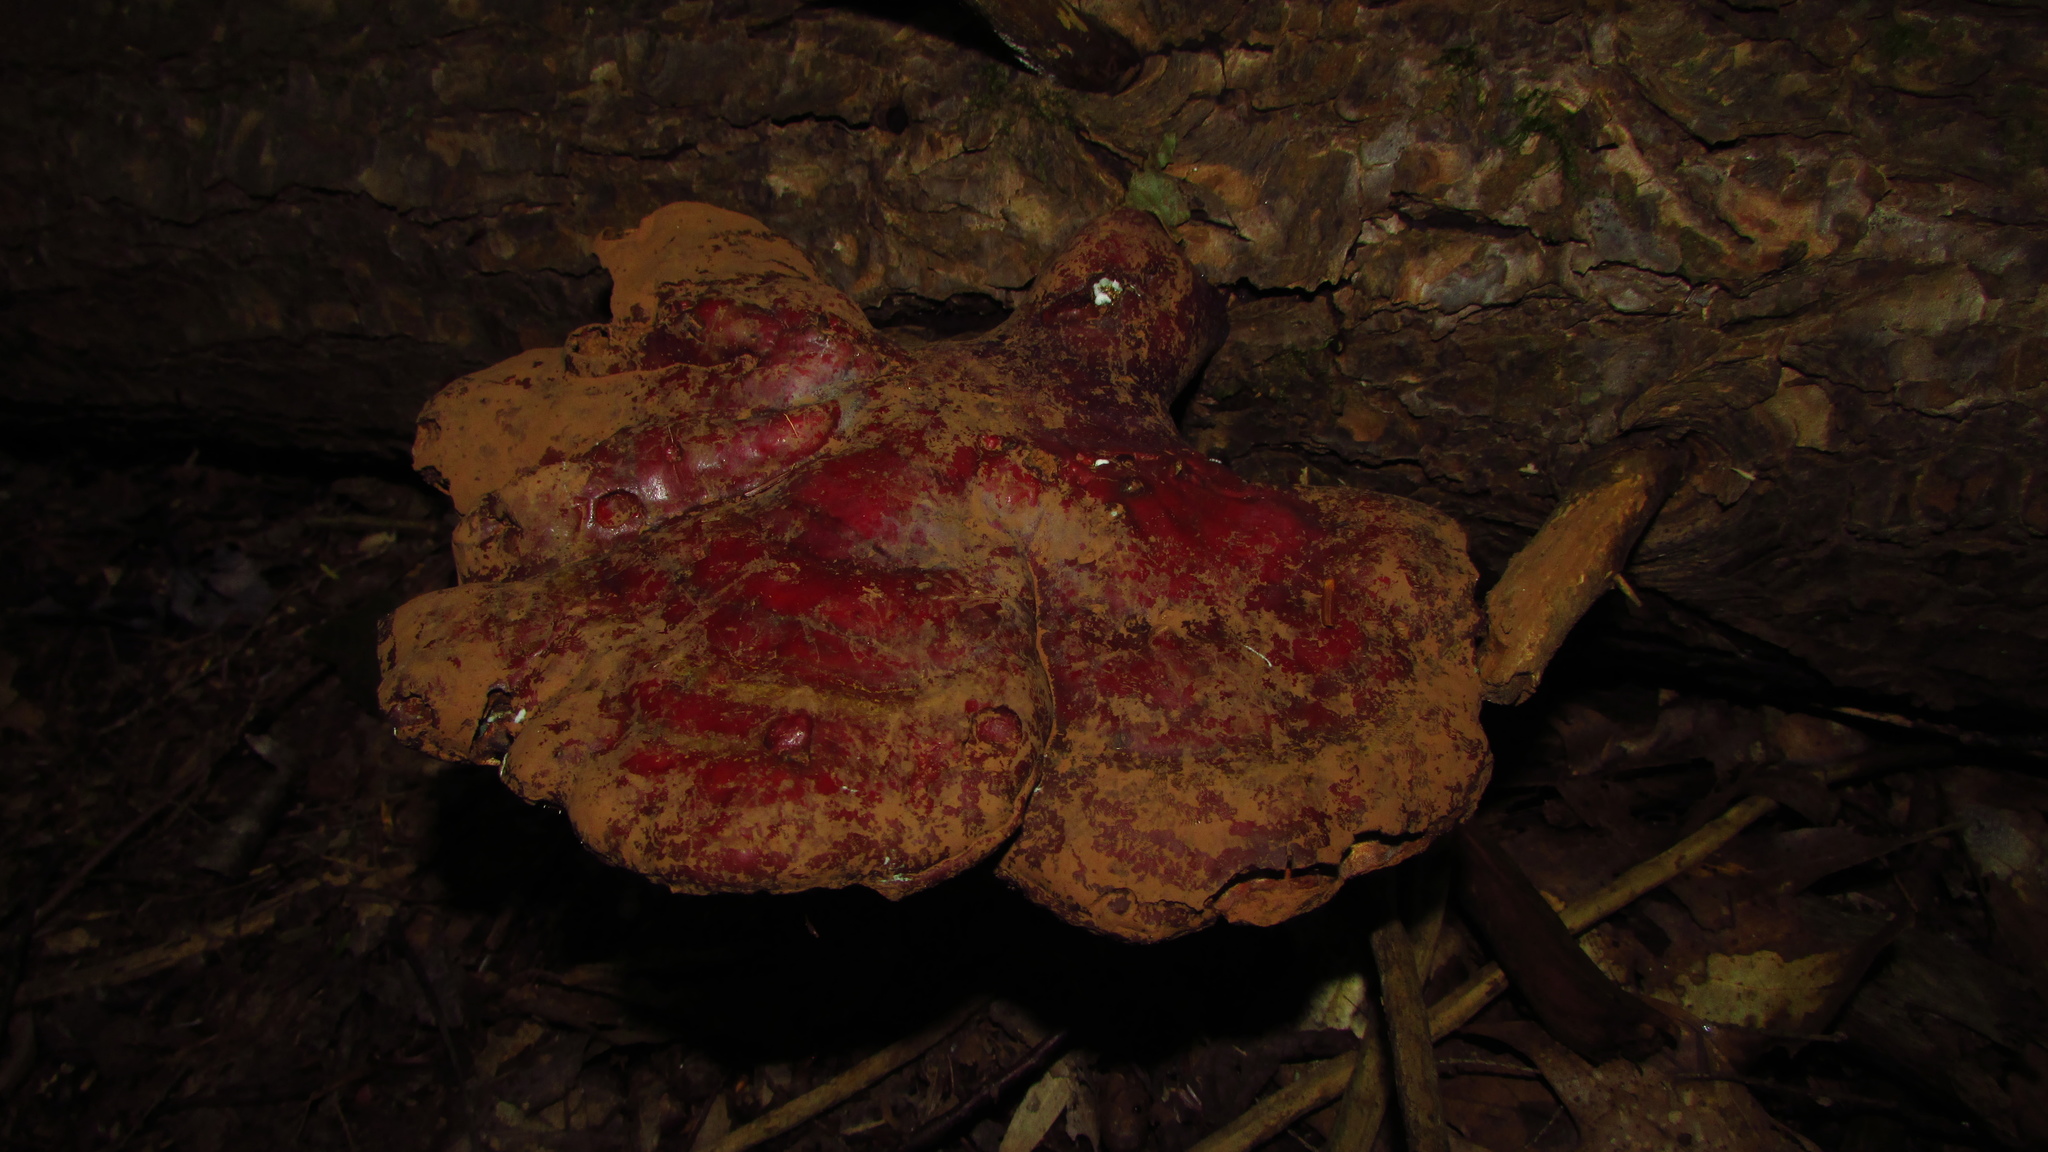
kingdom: Fungi
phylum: Basidiomycota
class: Agaricomycetes
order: Polyporales
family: Polyporaceae
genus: Ganoderma
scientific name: Ganoderma tsugae
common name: Hemlock varnish shelf
